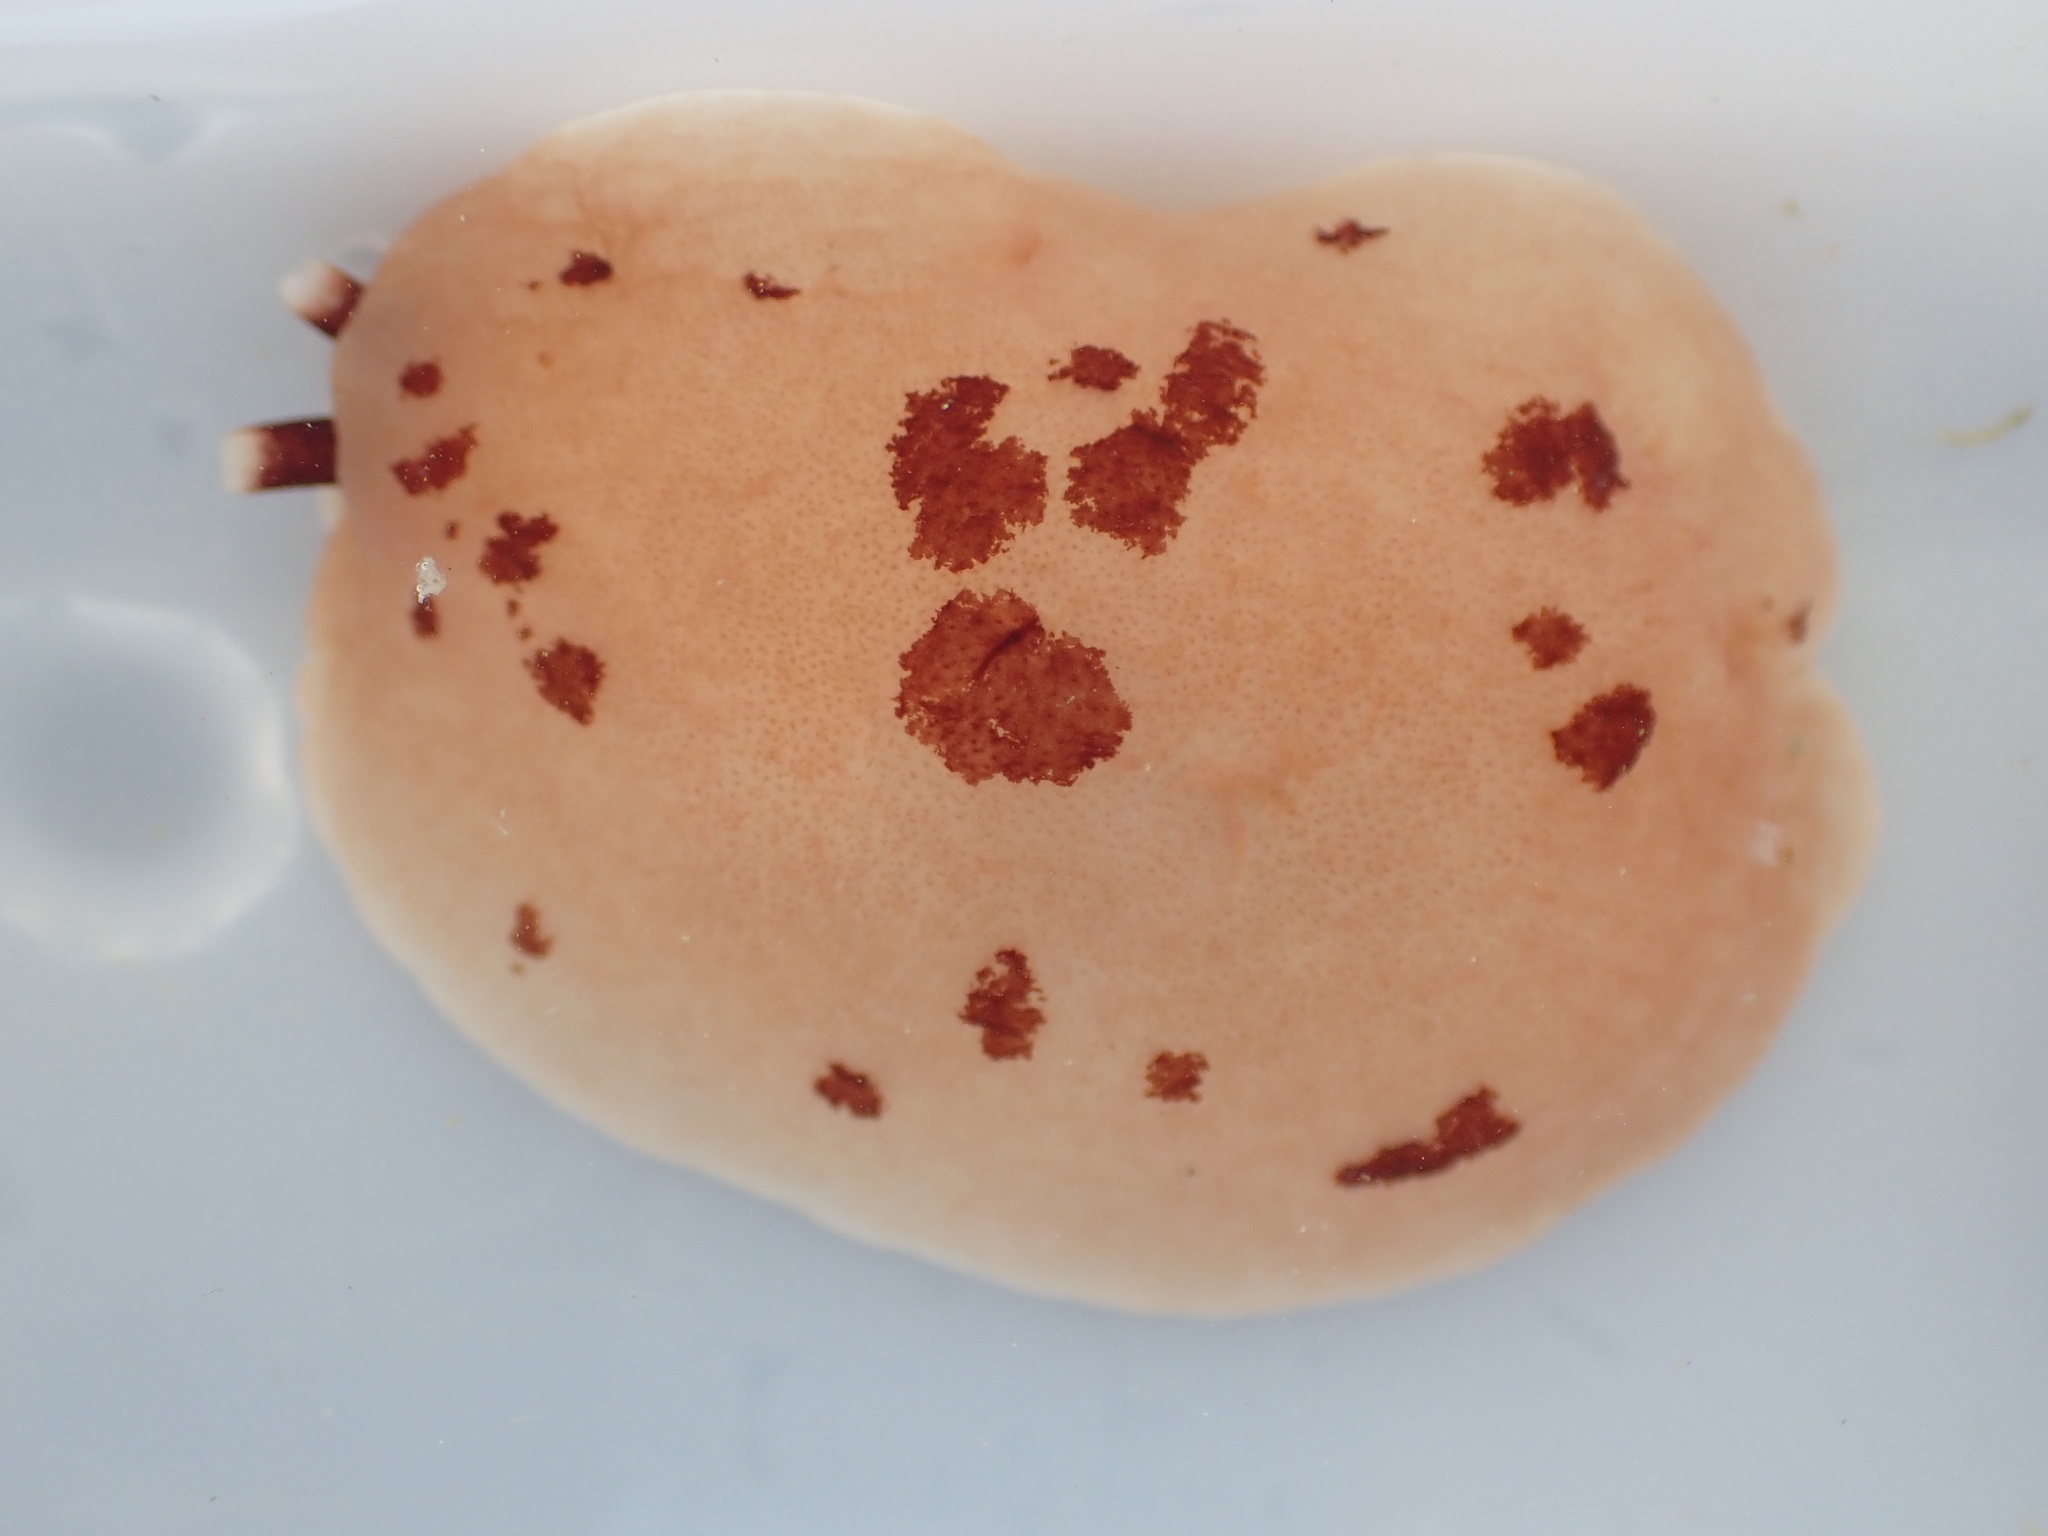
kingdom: Animalia
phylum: Mollusca
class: Gastropoda
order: Pleurobranchida
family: Pleurobranchidae
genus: Berthella
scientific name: Berthella ornata
